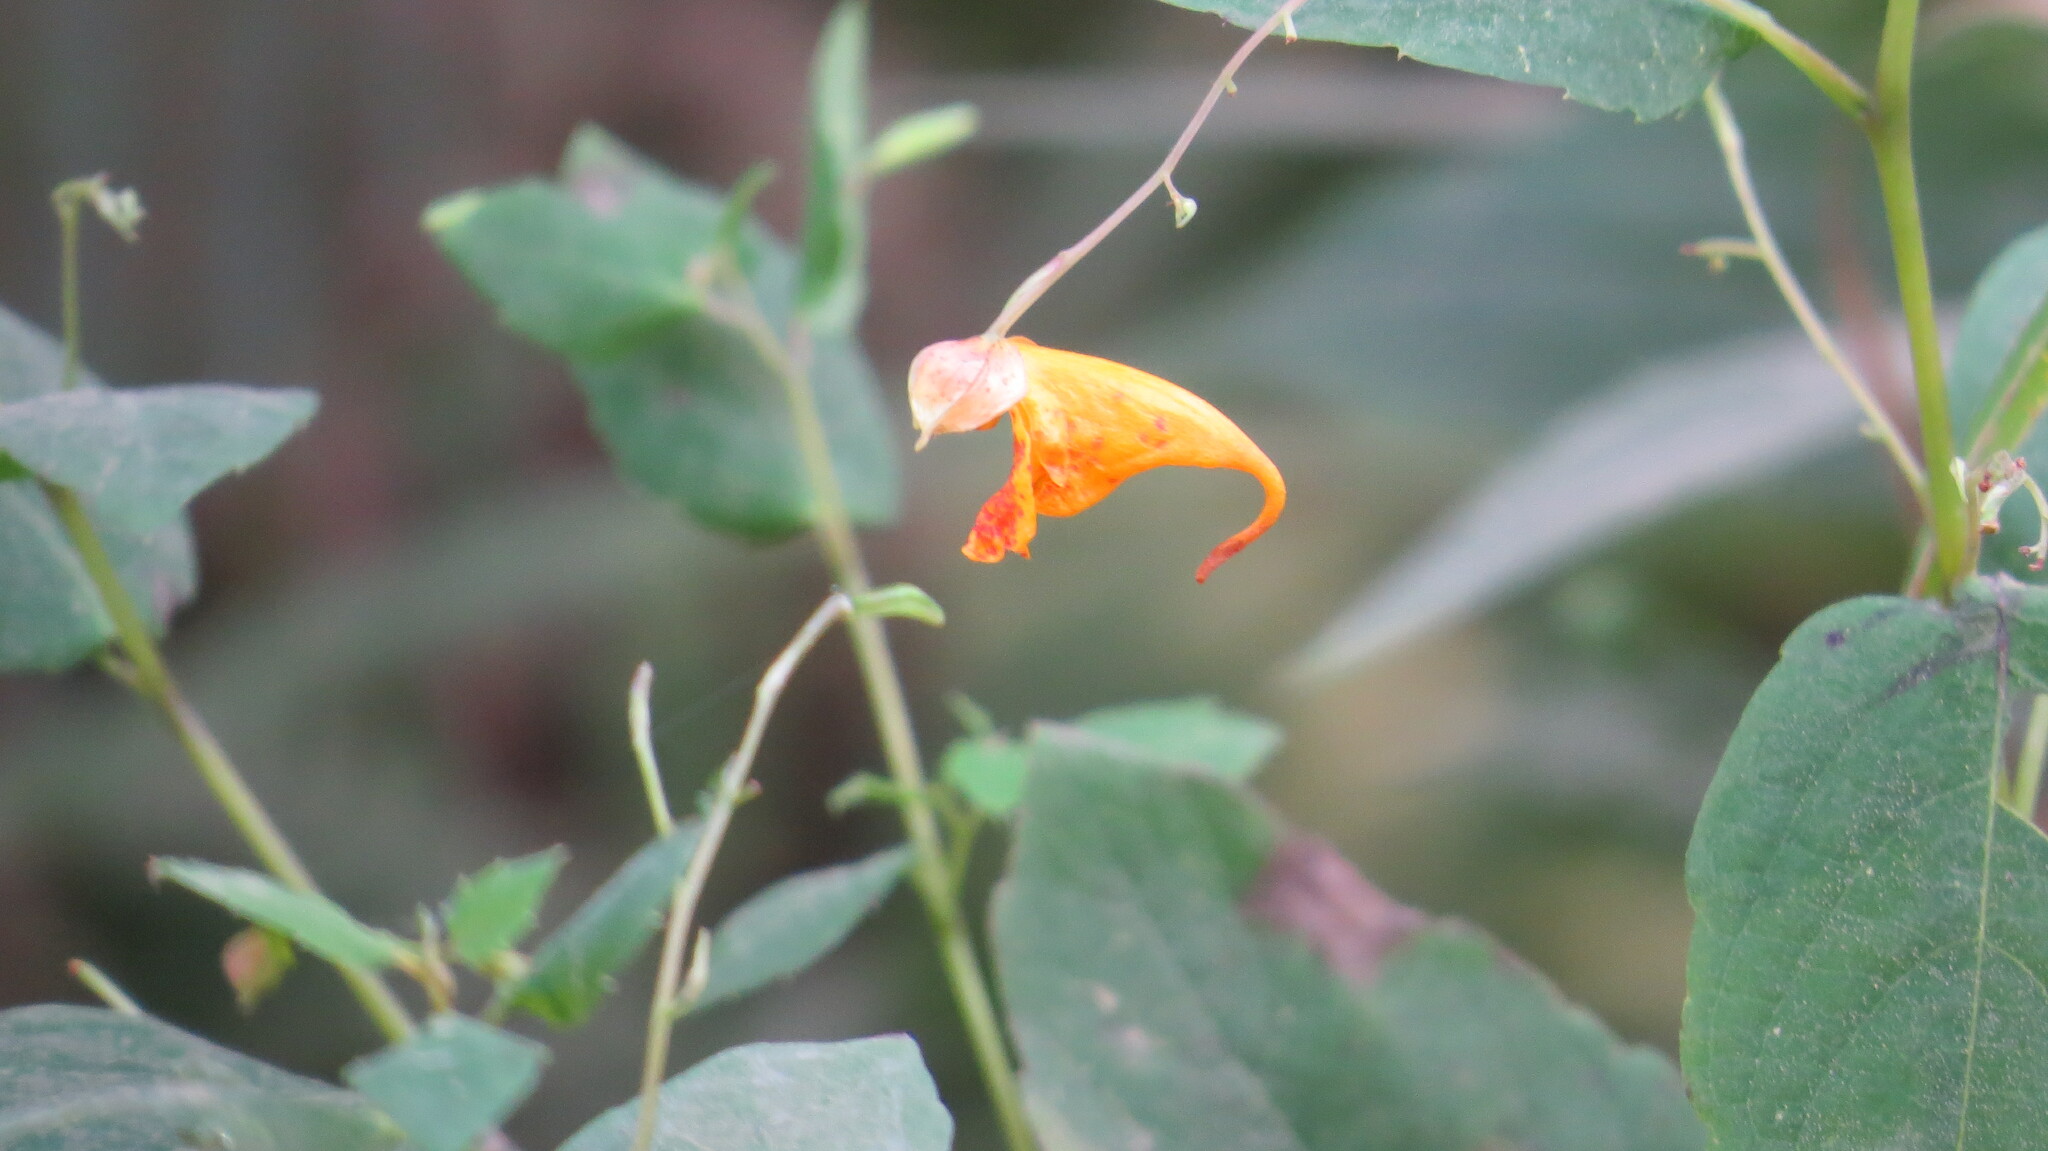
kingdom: Plantae
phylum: Tracheophyta
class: Magnoliopsida
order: Ericales
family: Balsaminaceae
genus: Impatiens
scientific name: Impatiens capensis
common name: Orange balsam
